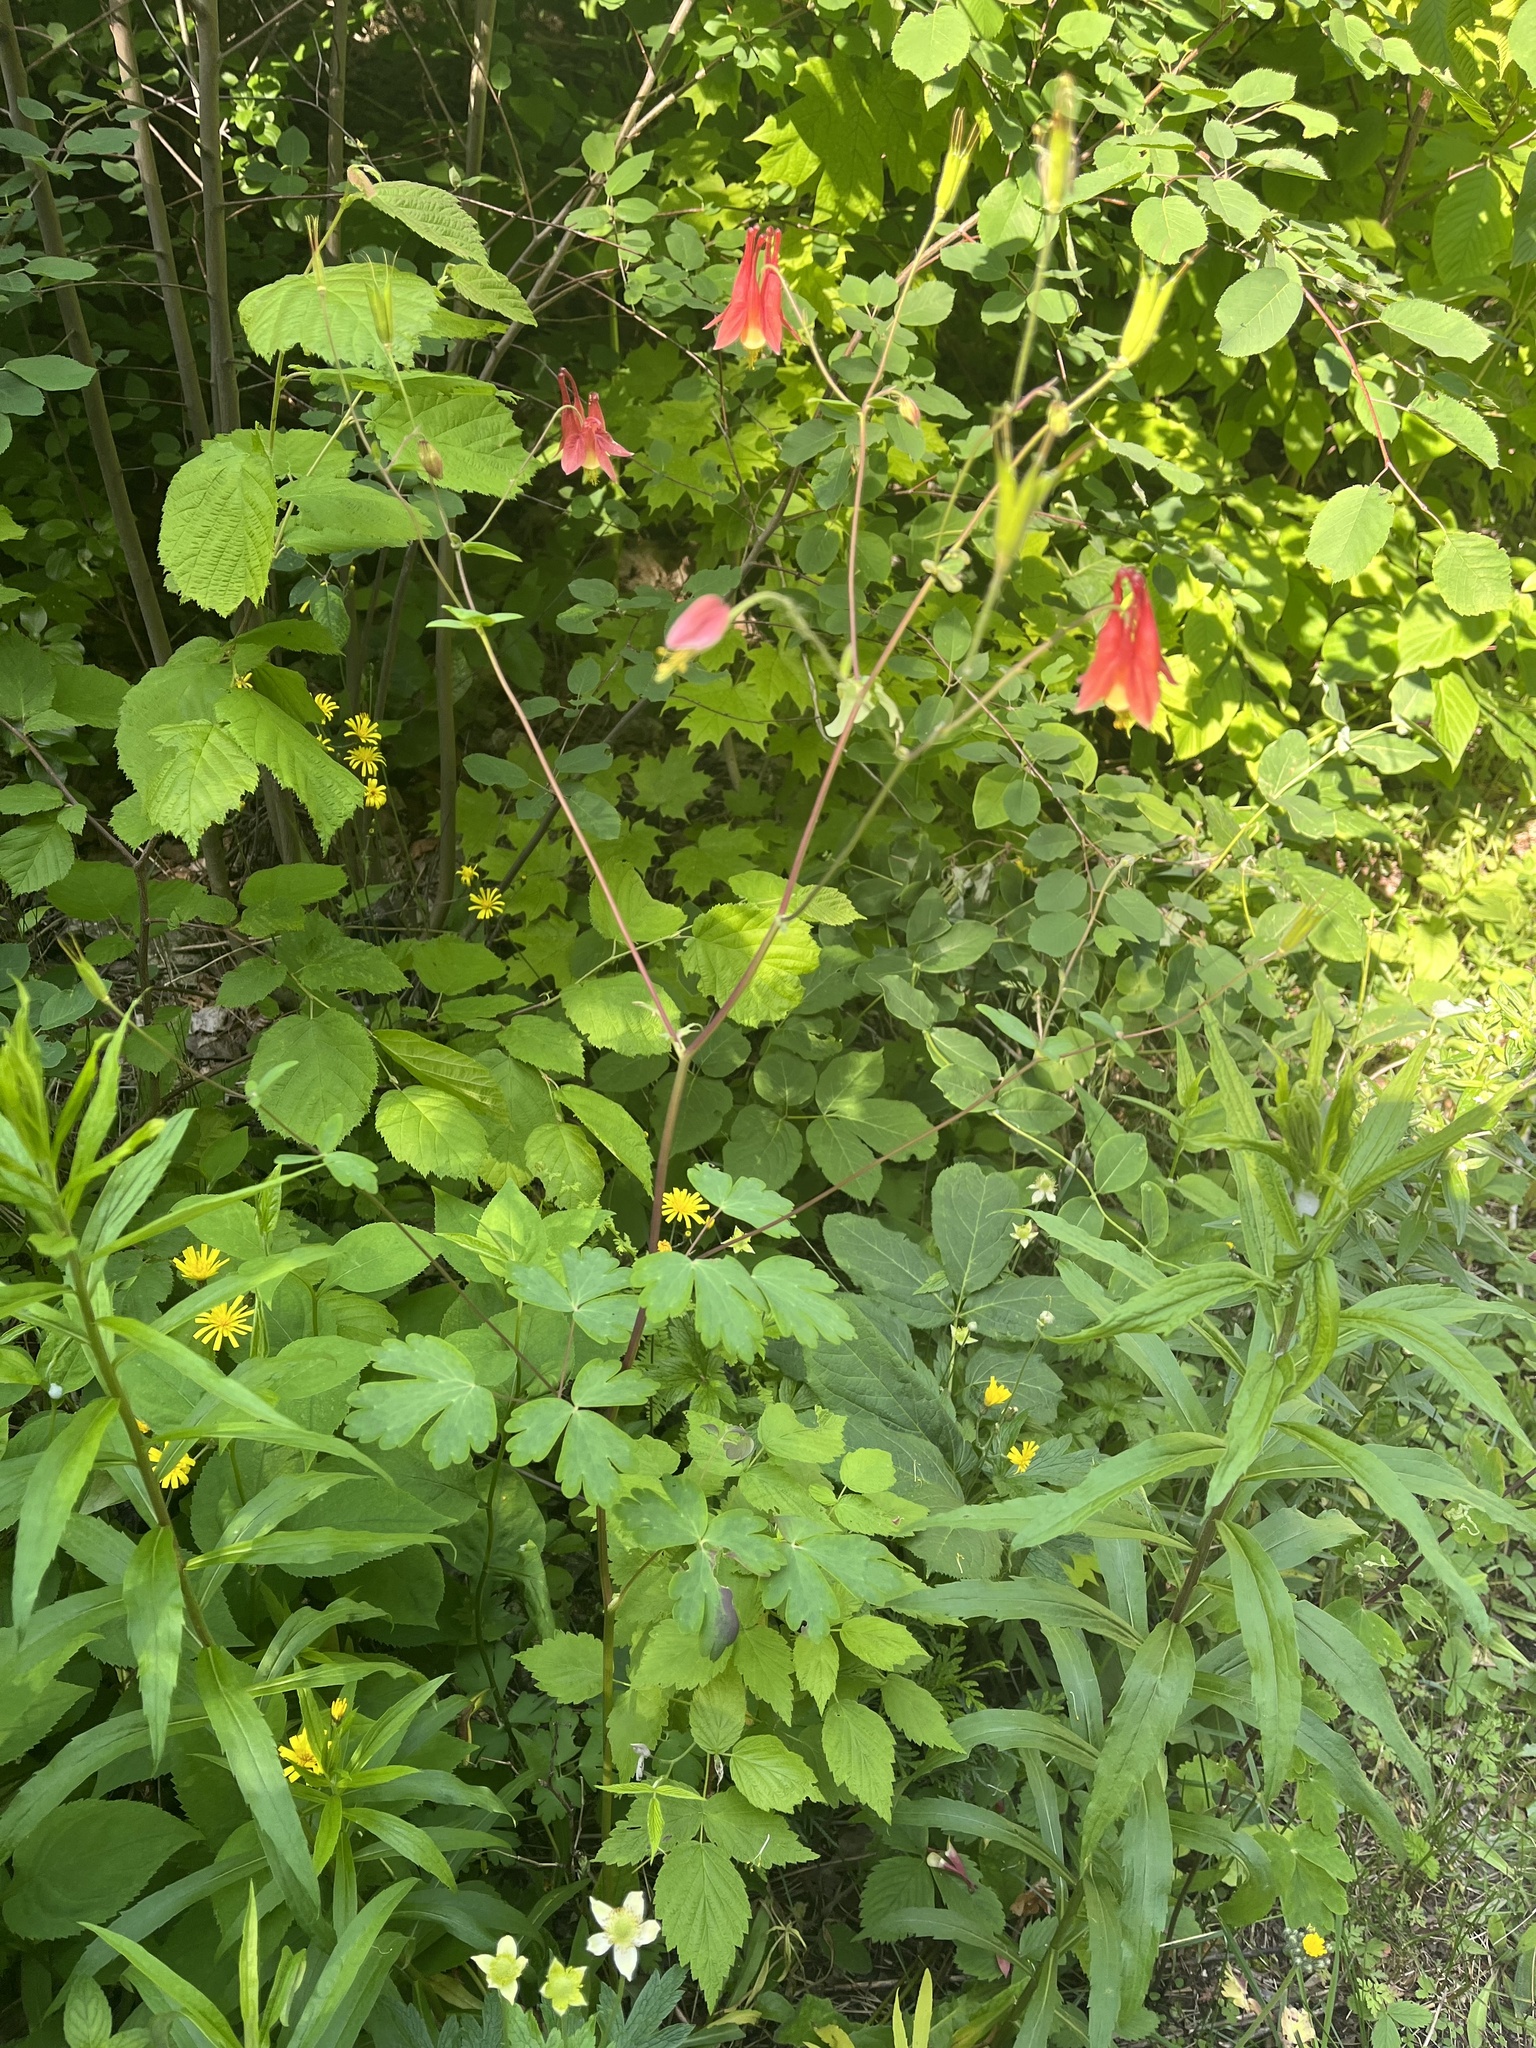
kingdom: Plantae
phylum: Tracheophyta
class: Magnoliopsida
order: Ranunculales
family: Ranunculaceae
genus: Aquilegia
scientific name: Aquilegia canadensis
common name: American columbine
